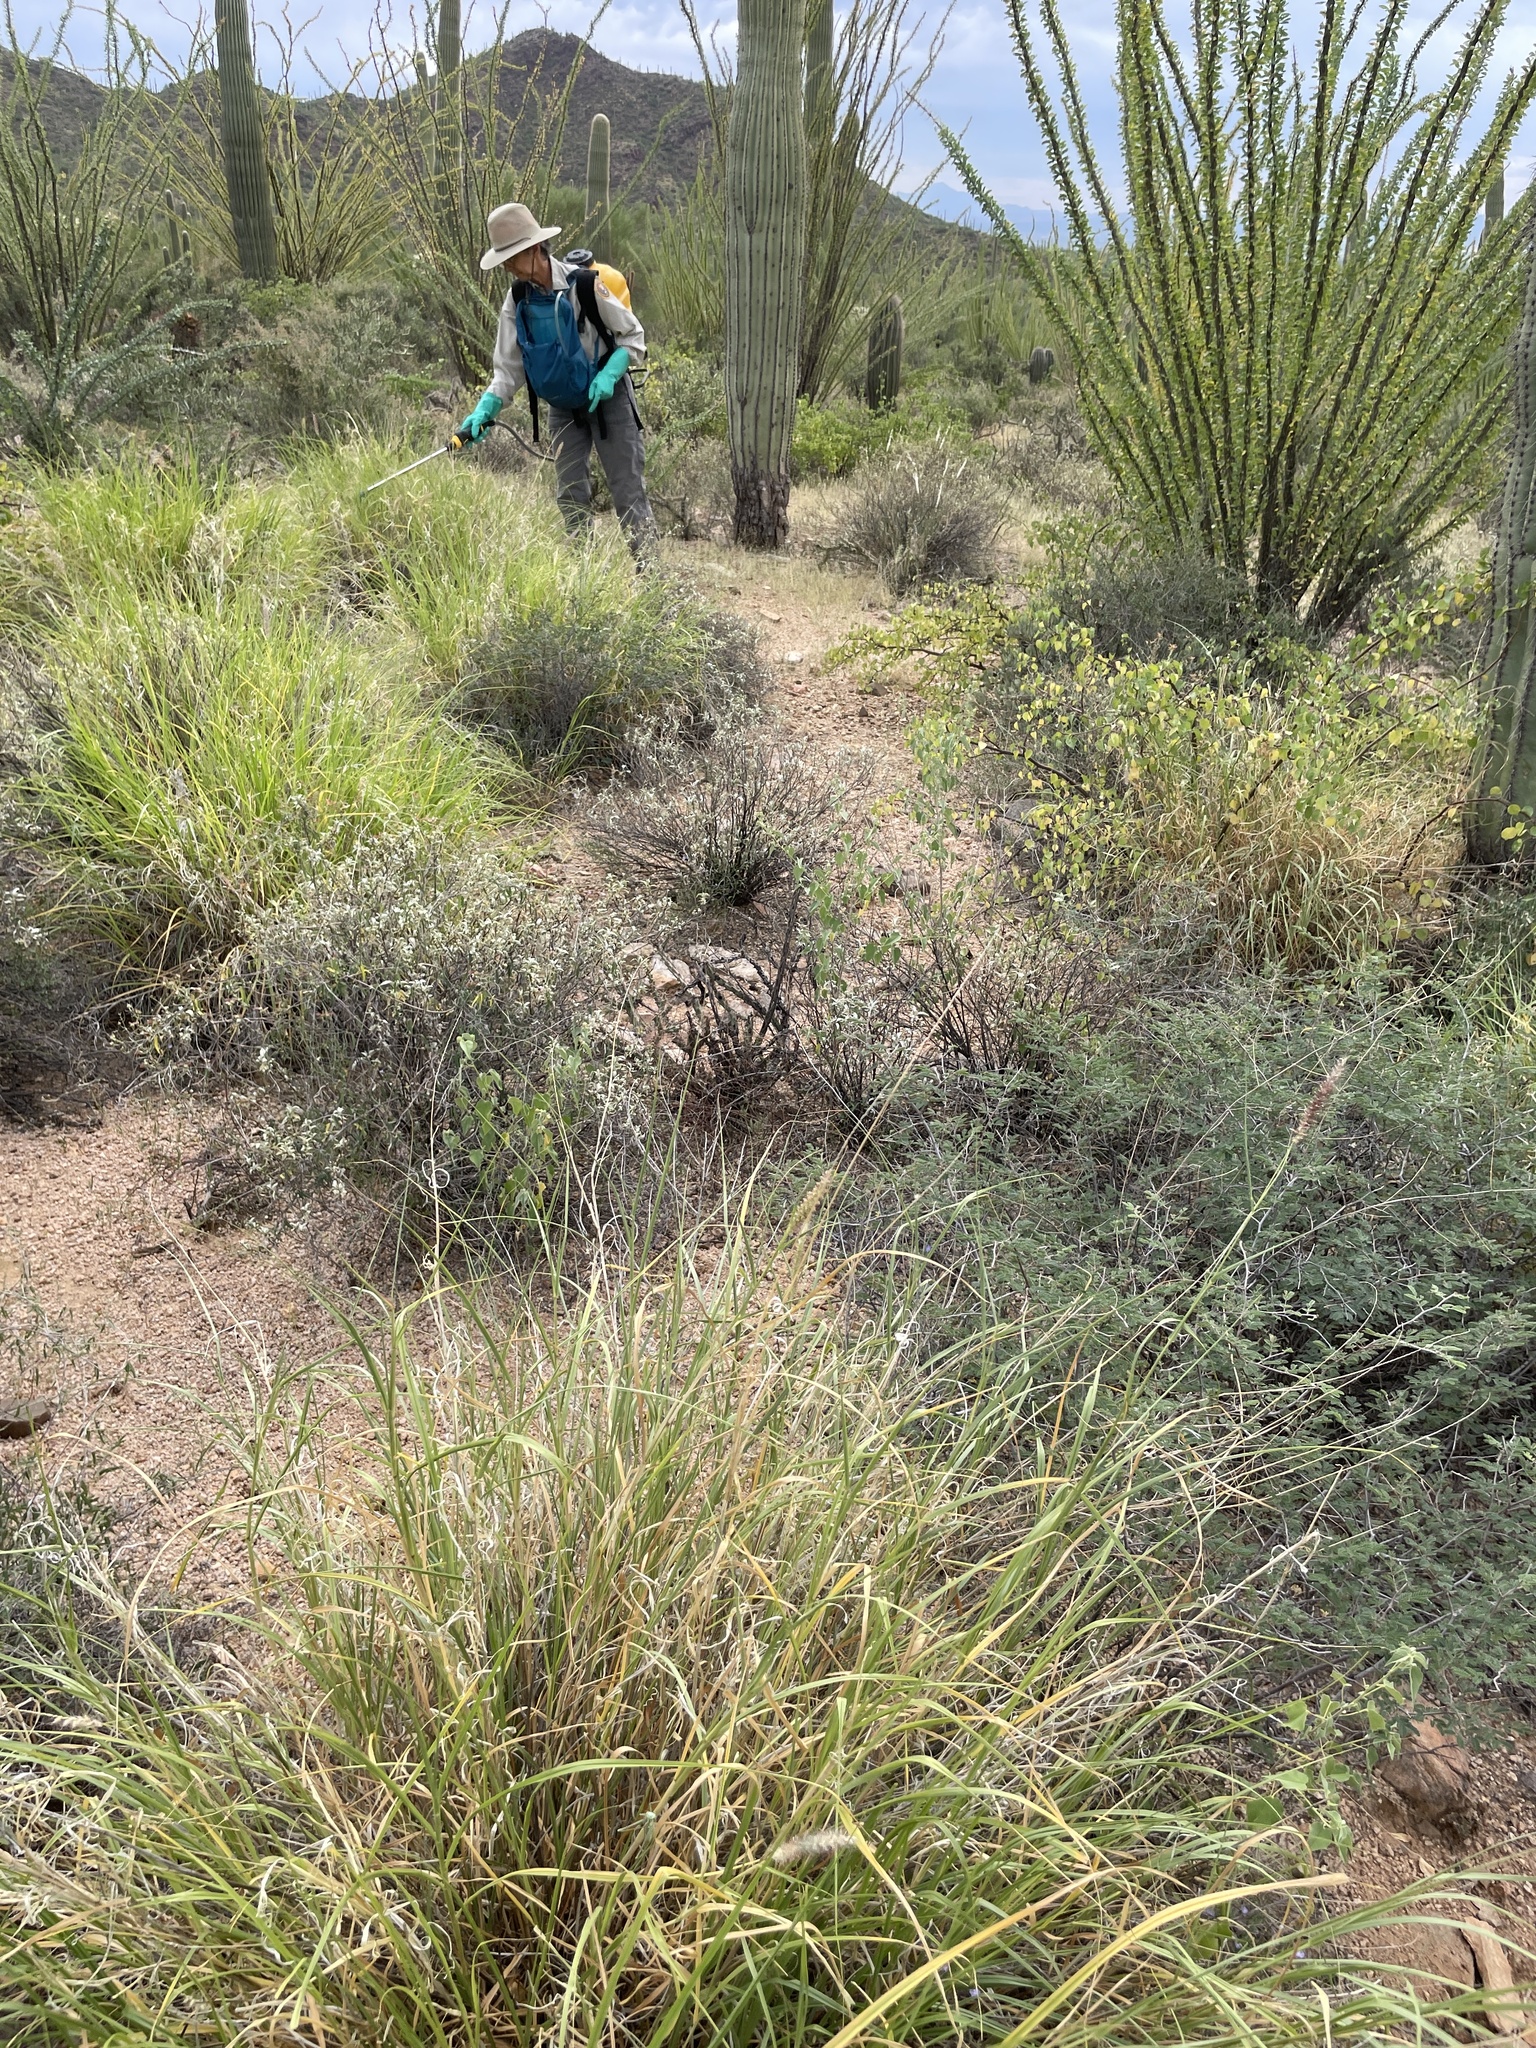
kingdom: Plantae
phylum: Tracheophyta
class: Liliopsida
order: Poales
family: Poaceae
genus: Cenchrus
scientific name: Cenchrus ciliaris
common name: Buffelgrass
